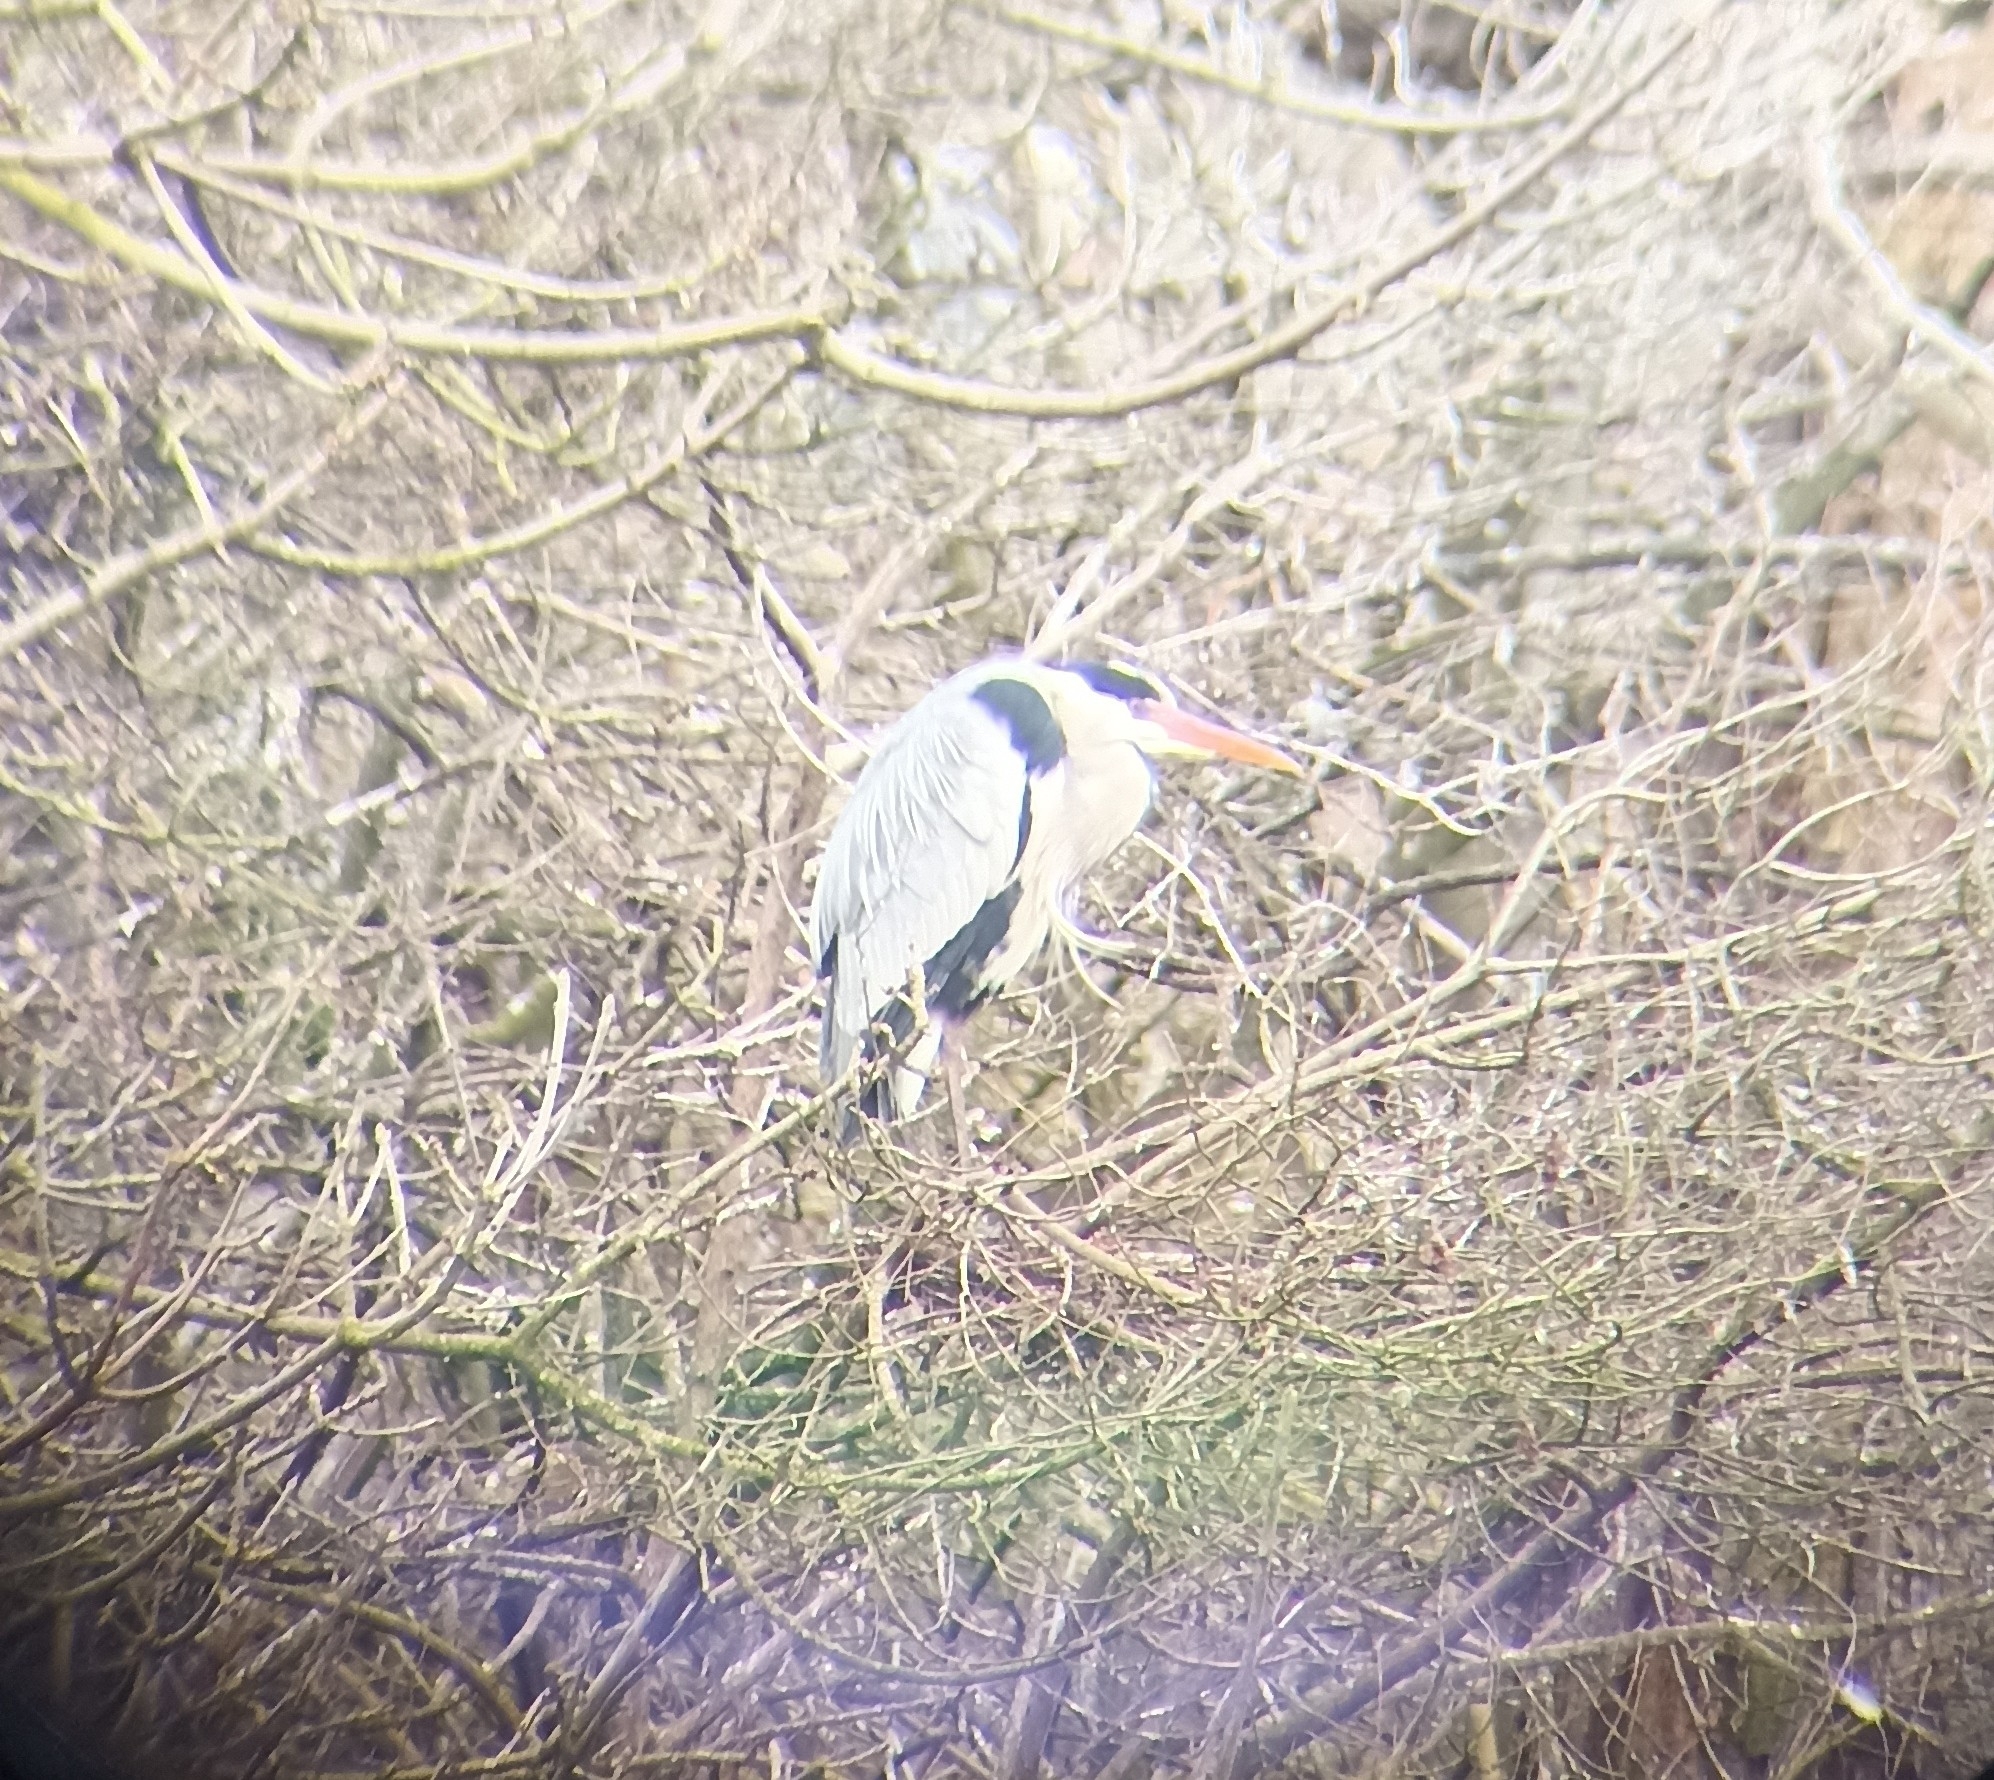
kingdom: Animalia
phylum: Chordata
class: Aves
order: Pelecaniformes
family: Ardeidae
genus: Ardea
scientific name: Ardea cinerea
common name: Grey heron
